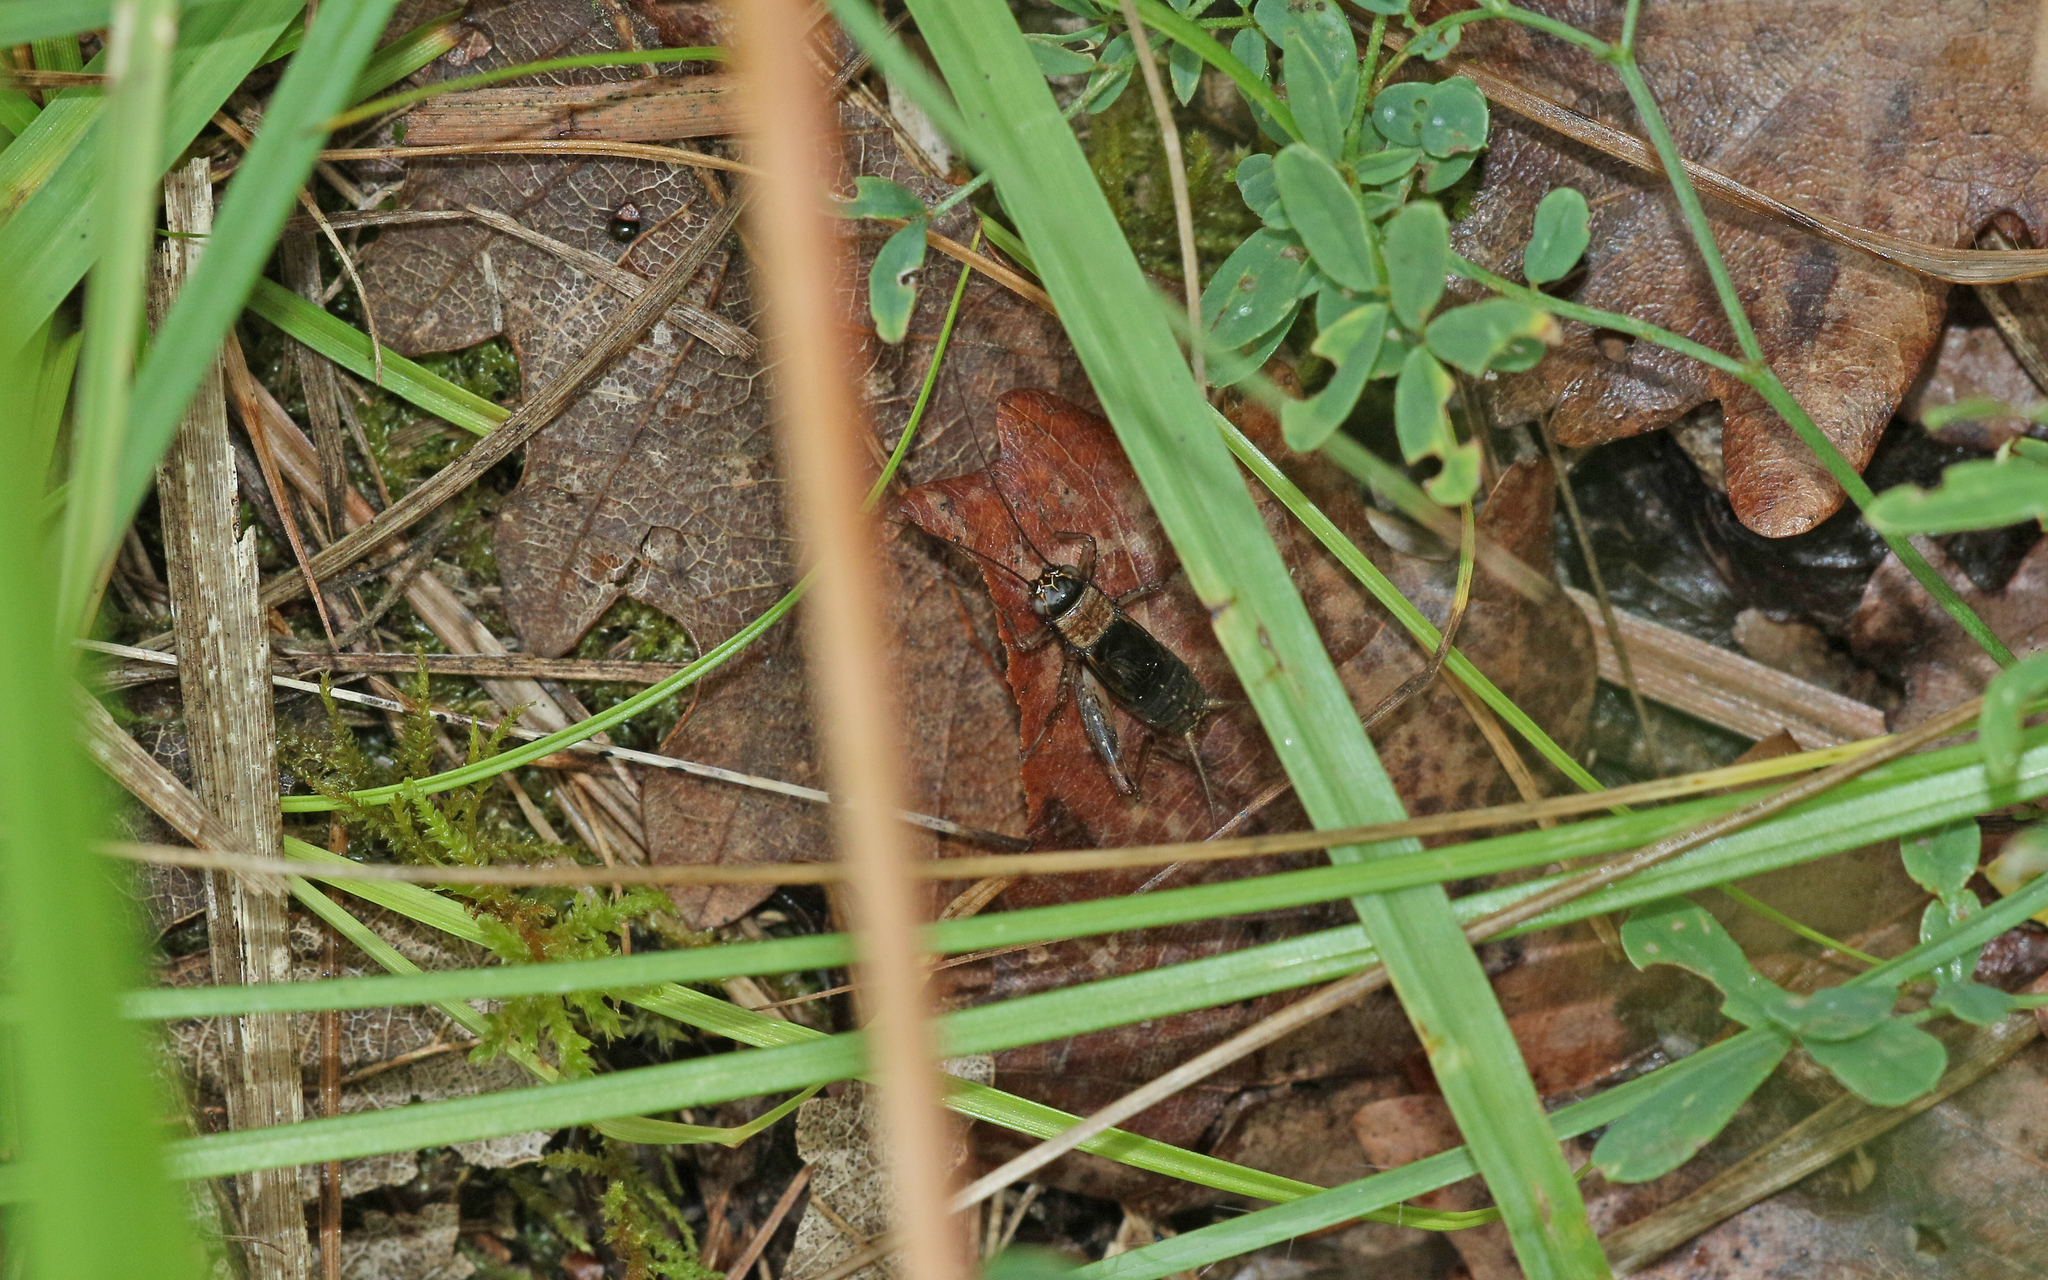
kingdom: Animalia
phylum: Arthropoda
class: Insecta
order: Orthoptera
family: Trigonidiidae
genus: Nemobius
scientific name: Nemobius sylvestris
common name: Wood-cricket
